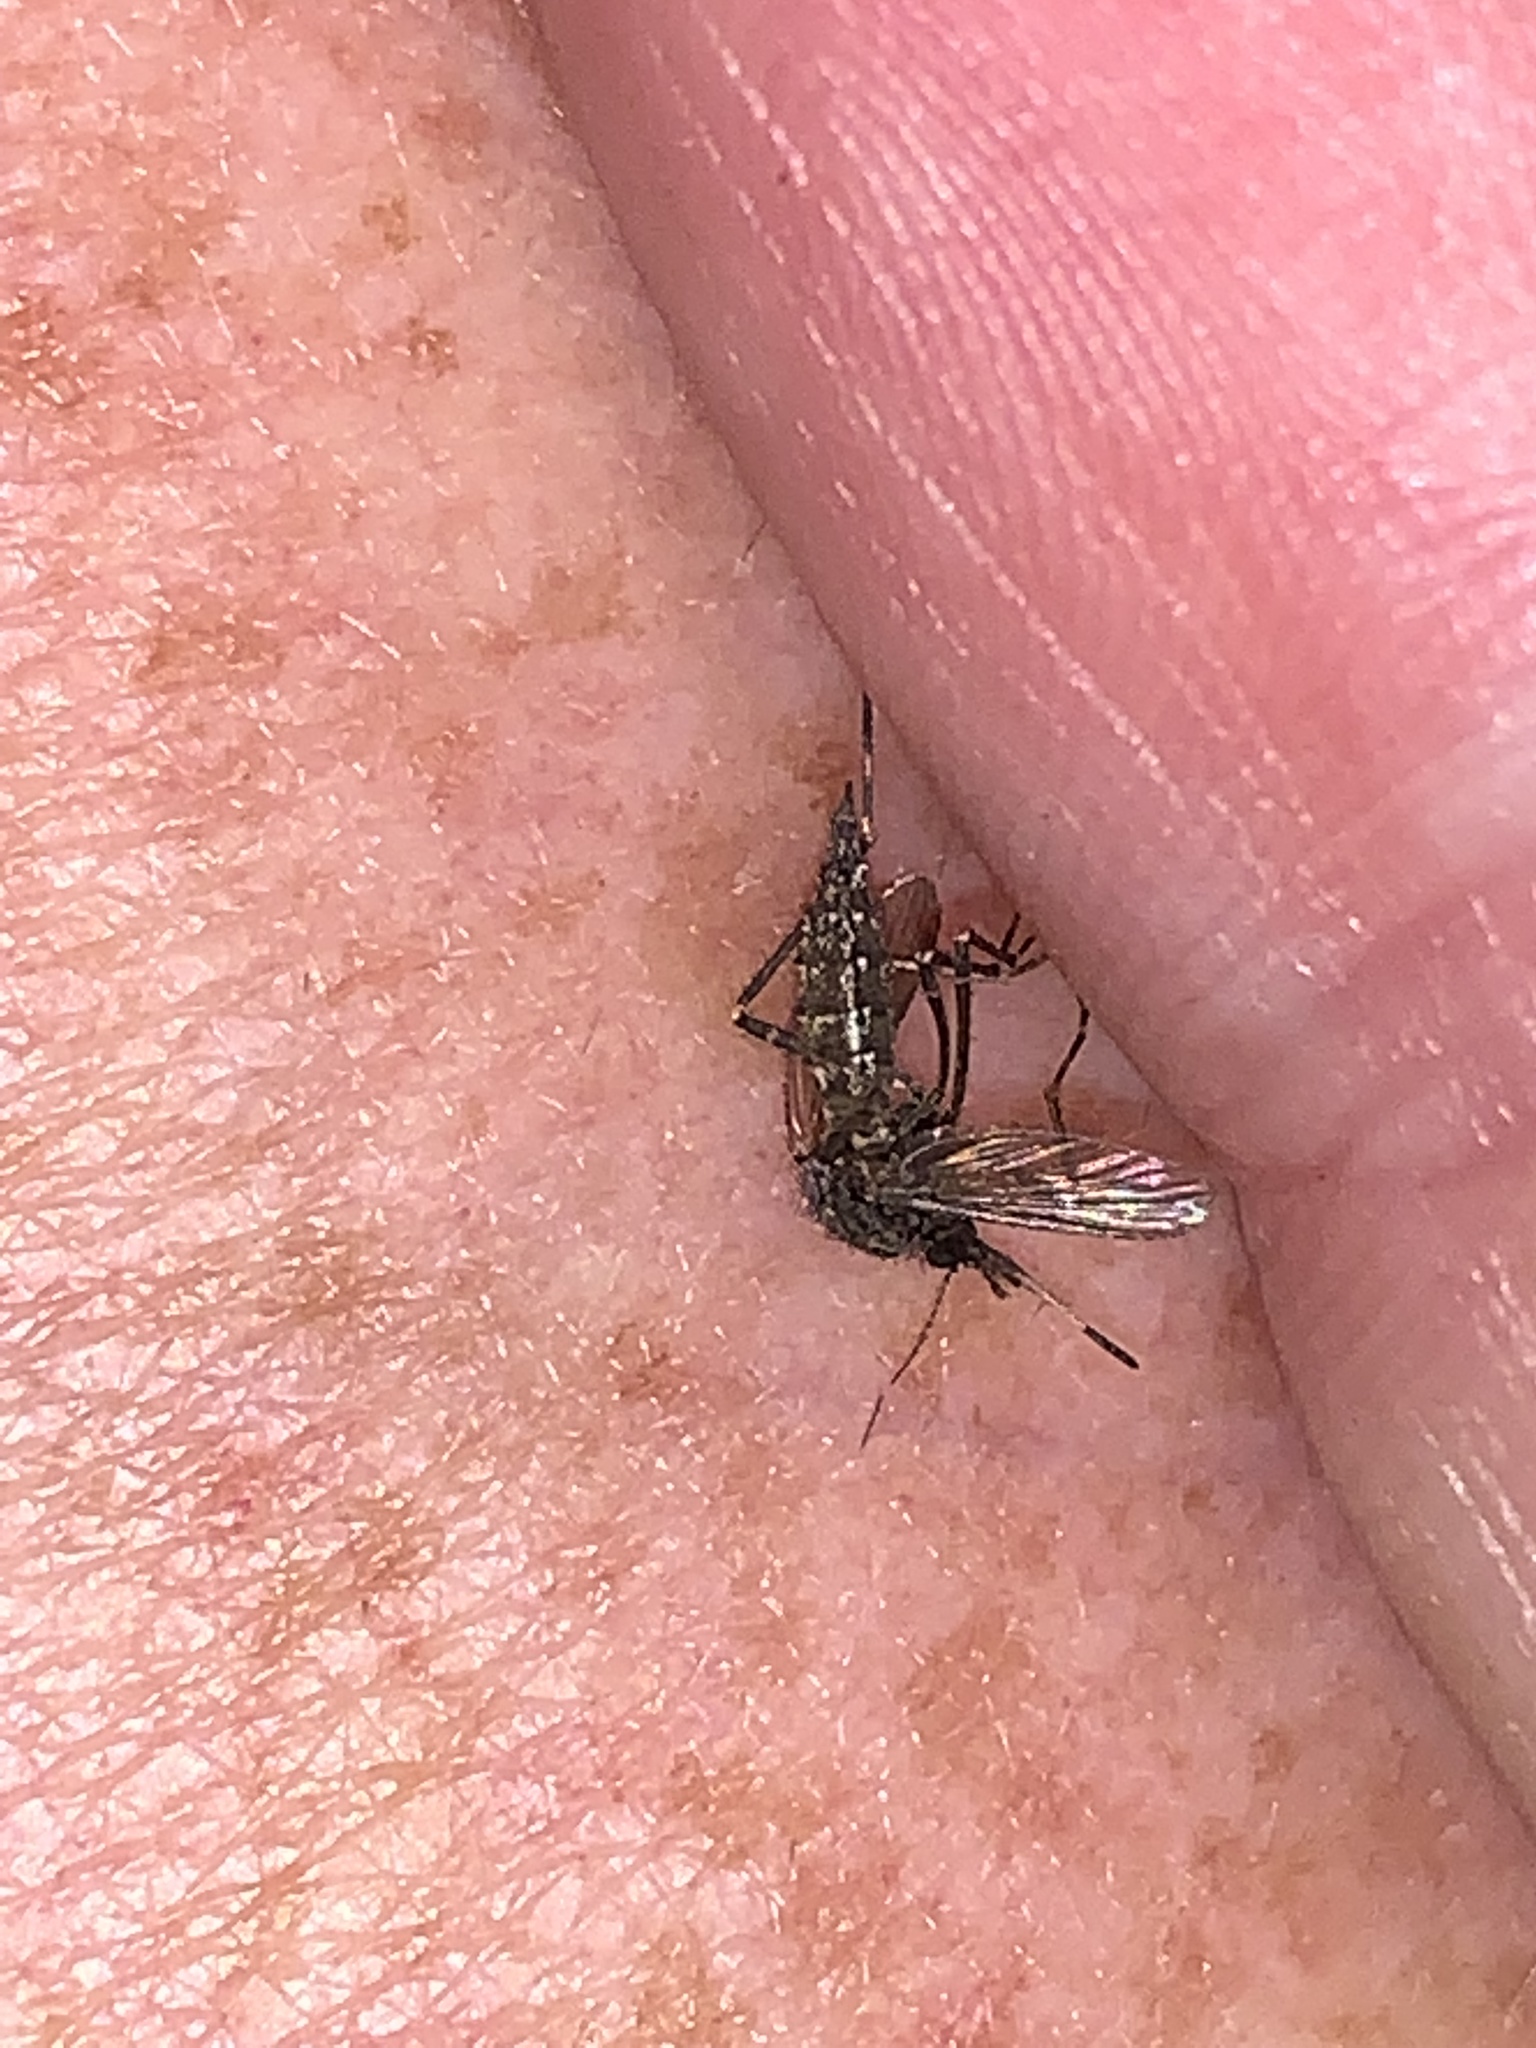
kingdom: Animalia
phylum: Arthropoda
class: Insecta
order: Diptera
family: Culicidae
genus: Psorophora
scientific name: Psorophora columbiae
